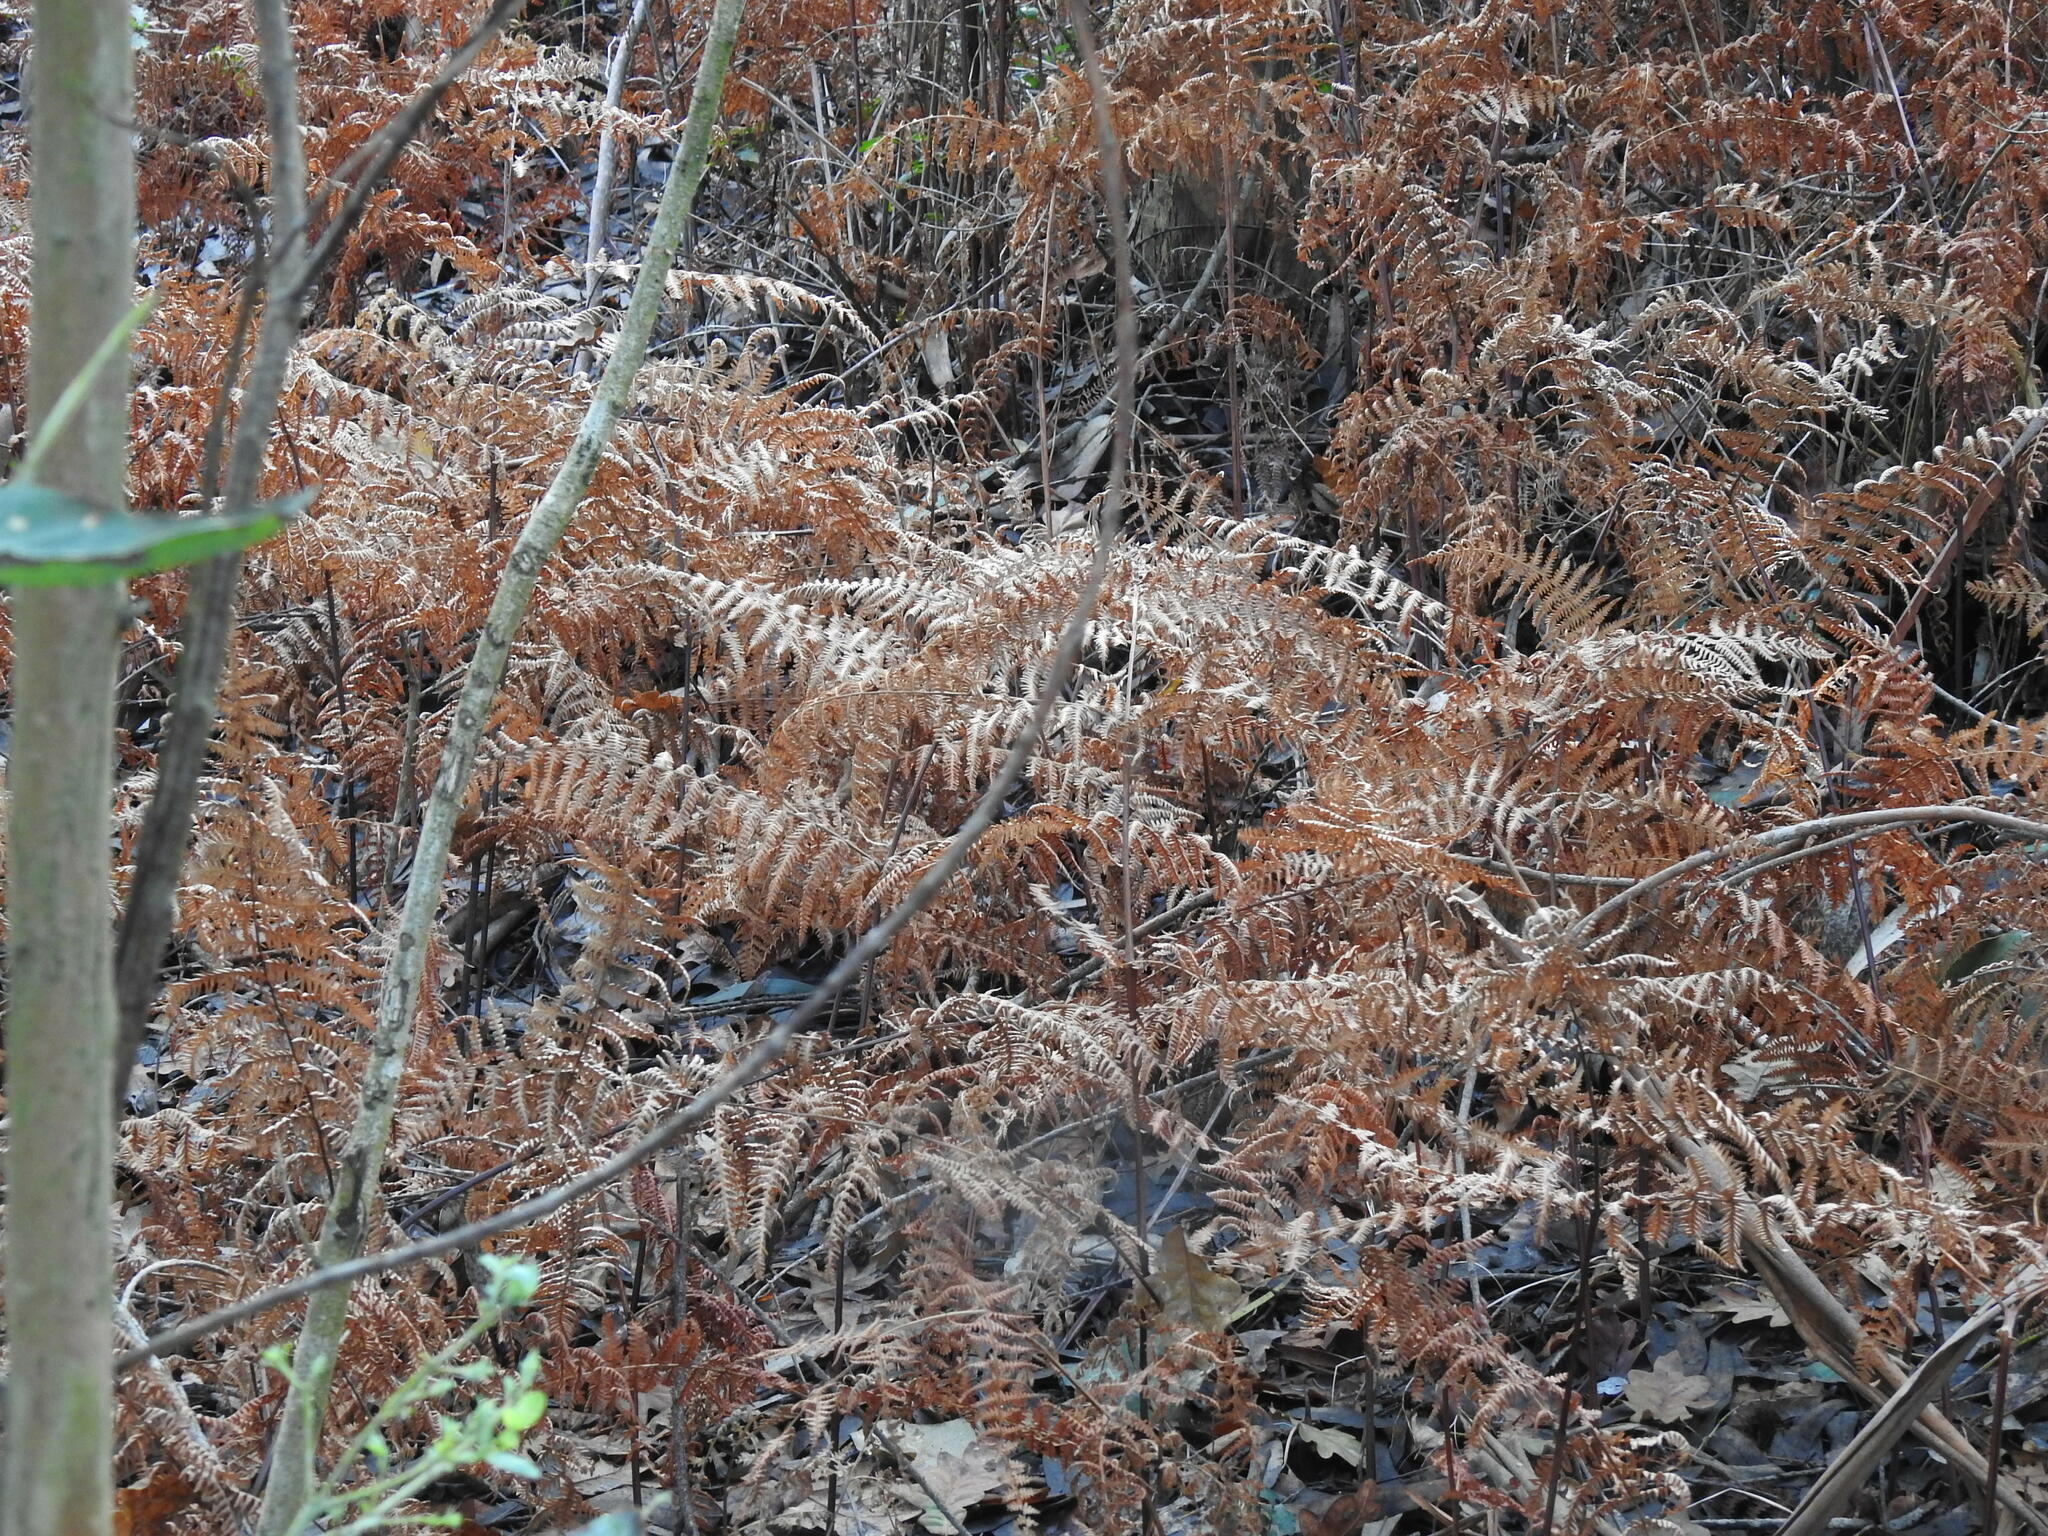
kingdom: Plantae
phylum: Tracheophyta
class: Polypodiopsida
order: Polypodiales
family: Dennstaedtiaceae
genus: Pteridium
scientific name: Pteridium aquilinum
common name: Bracken
